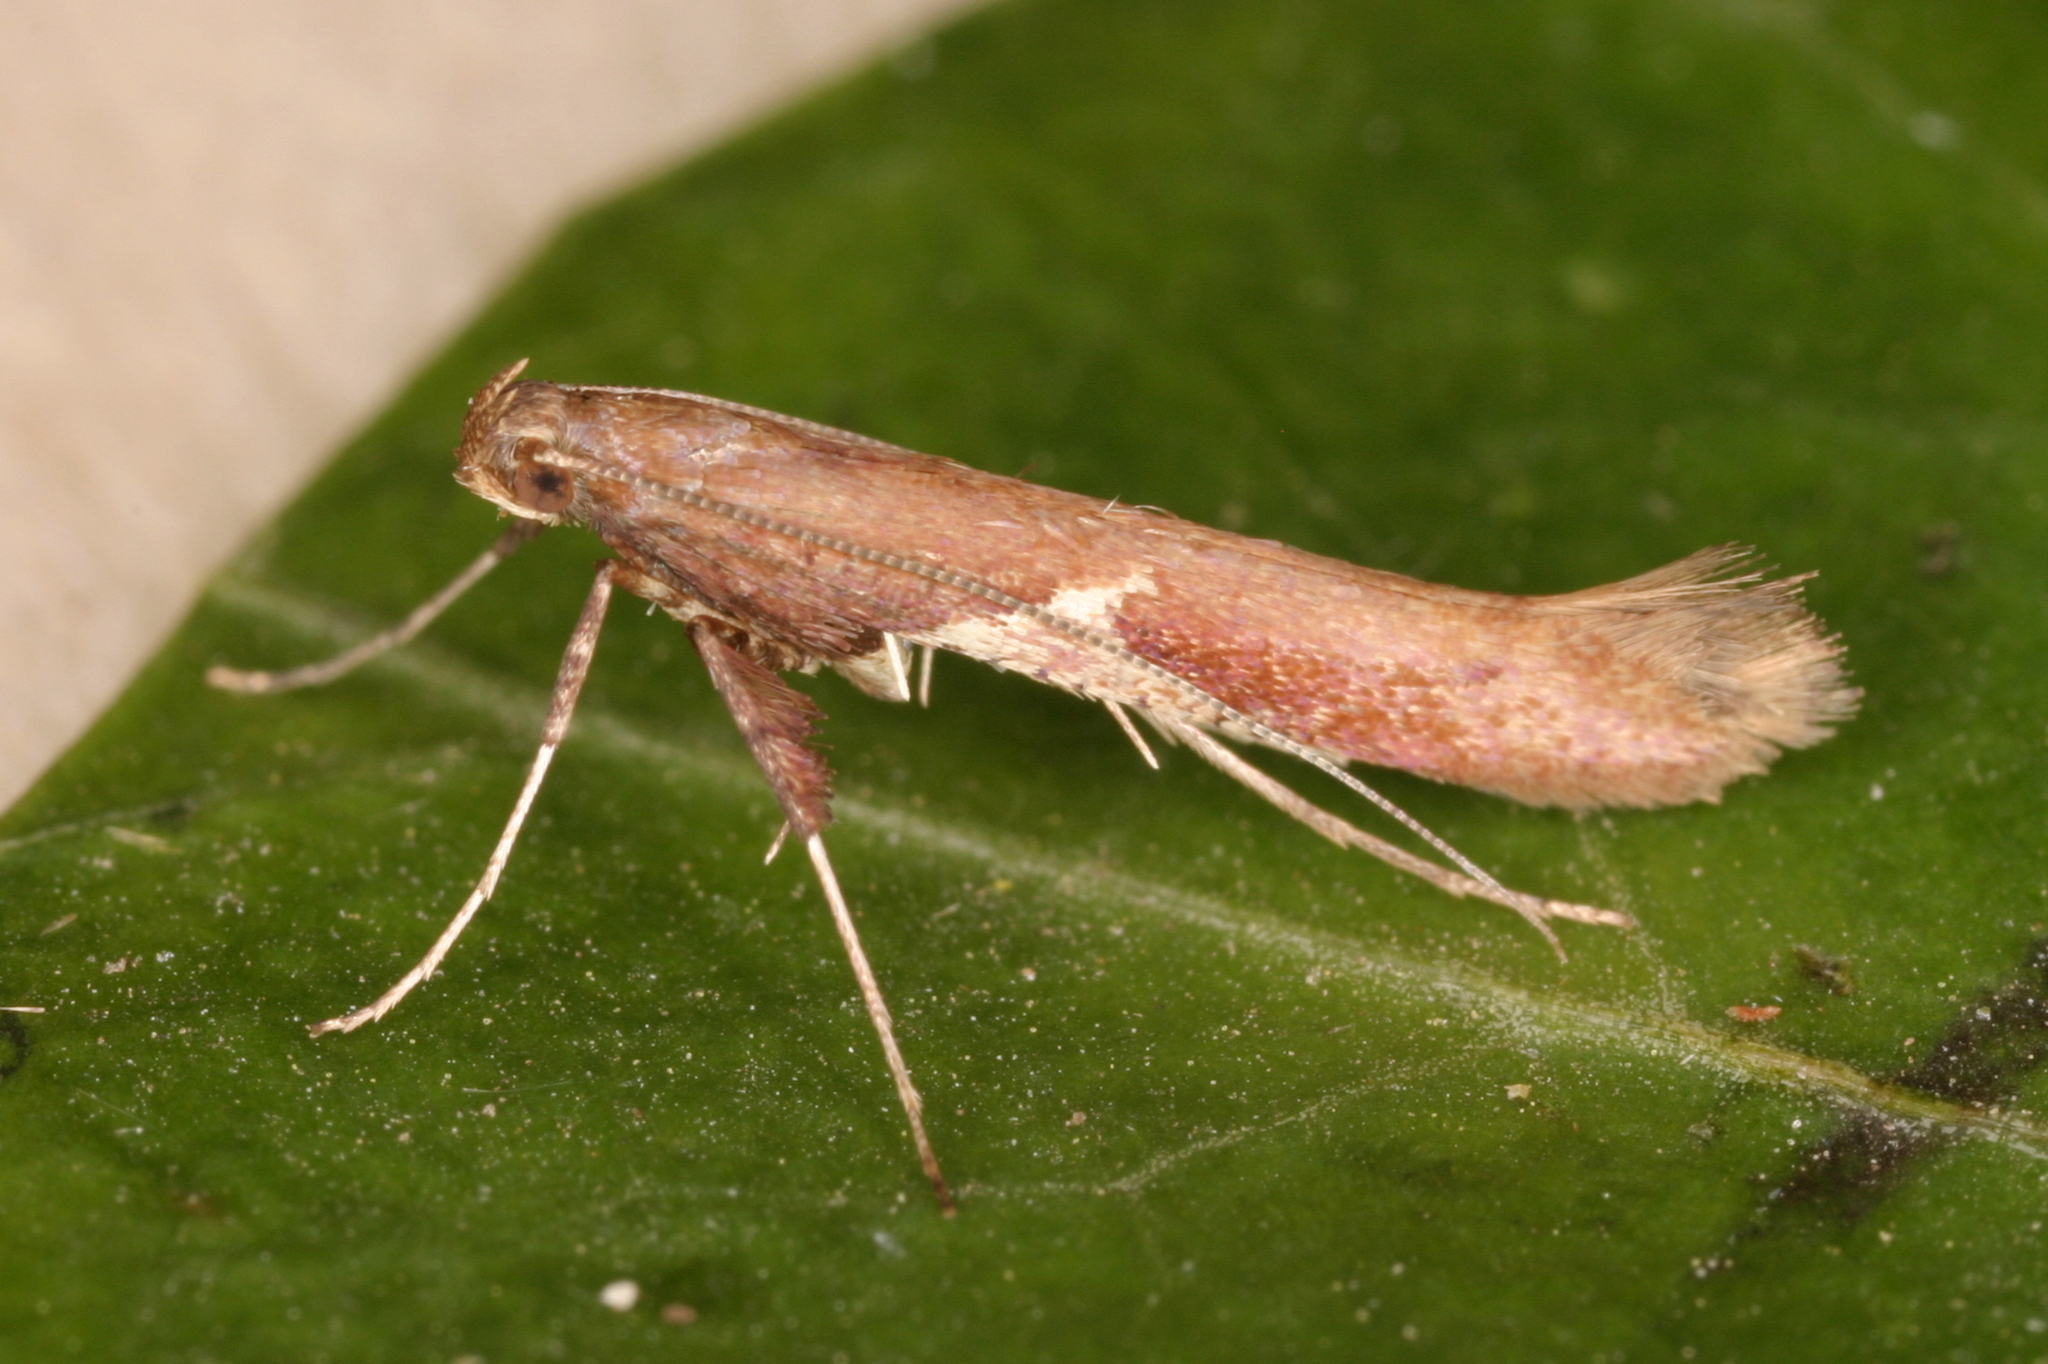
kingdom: Animalia
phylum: Arthropoda
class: Insecta
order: Lepidoptera
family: Gracillariidae
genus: Caloptilia
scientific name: Caloptilia stigmatella
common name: White-triangle slender
